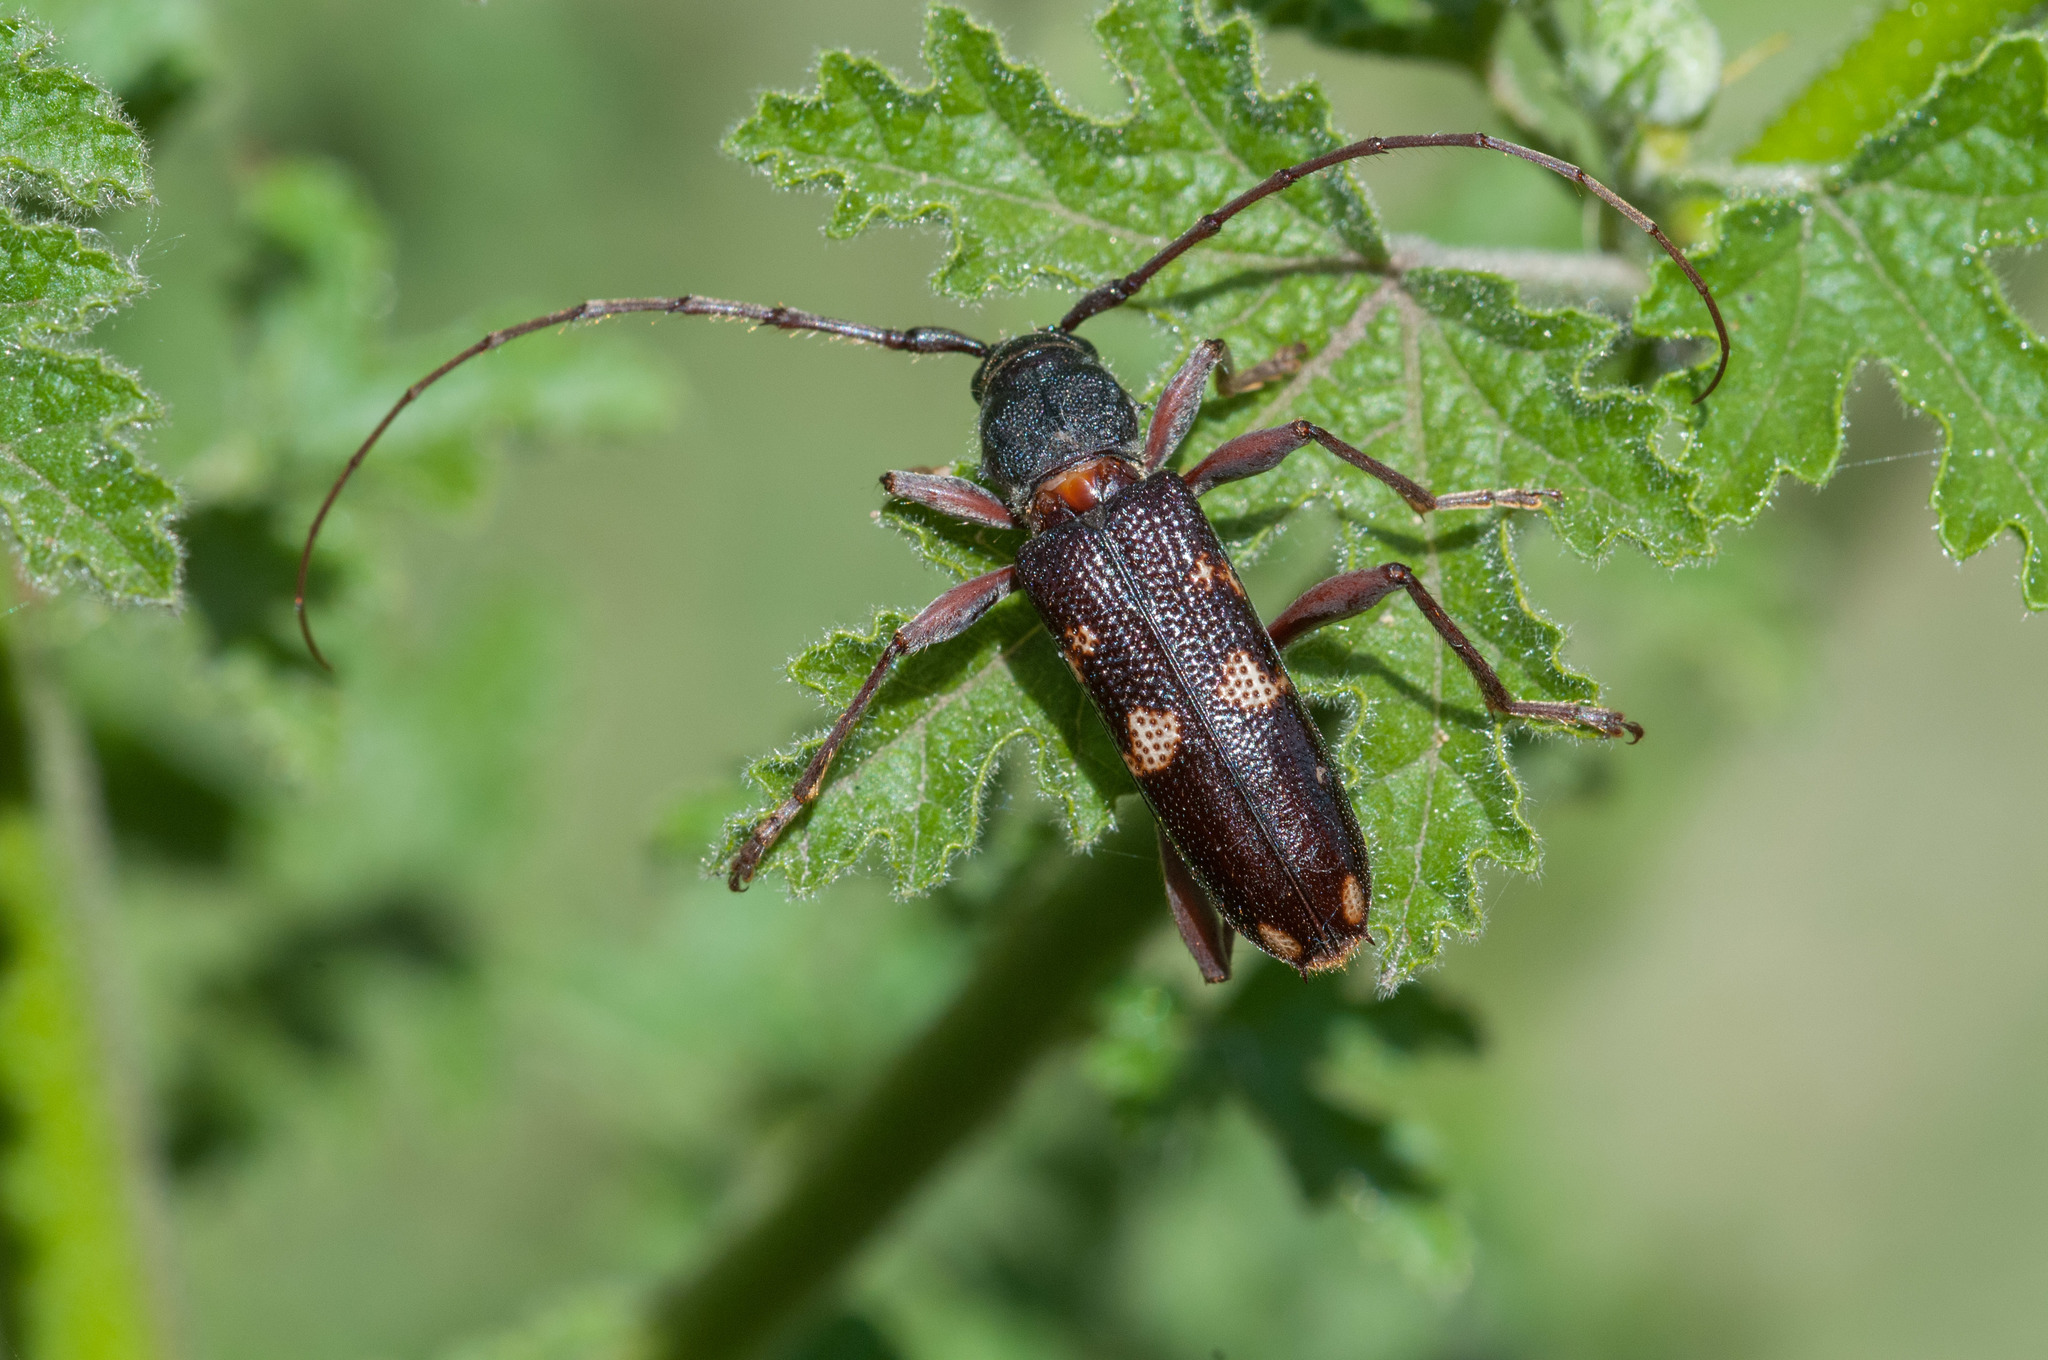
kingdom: Animalia
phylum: Arthropoda
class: Insecta
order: Coleoptera
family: Cerambycidae
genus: Phoracantha
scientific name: Phoracantha punctata
